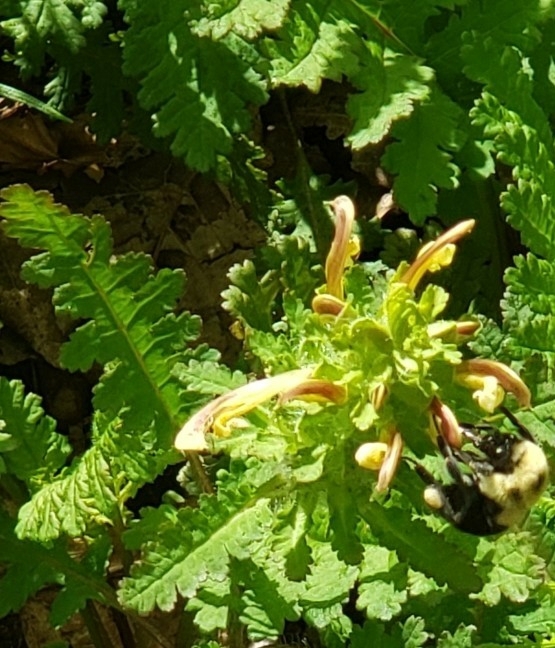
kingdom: Plantae
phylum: Tracheophyta
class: Magnoliopsida
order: Lamiales
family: Orobanchaceae
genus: Pedicularis
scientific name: Pedicularis canadensis
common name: Early lousewort
